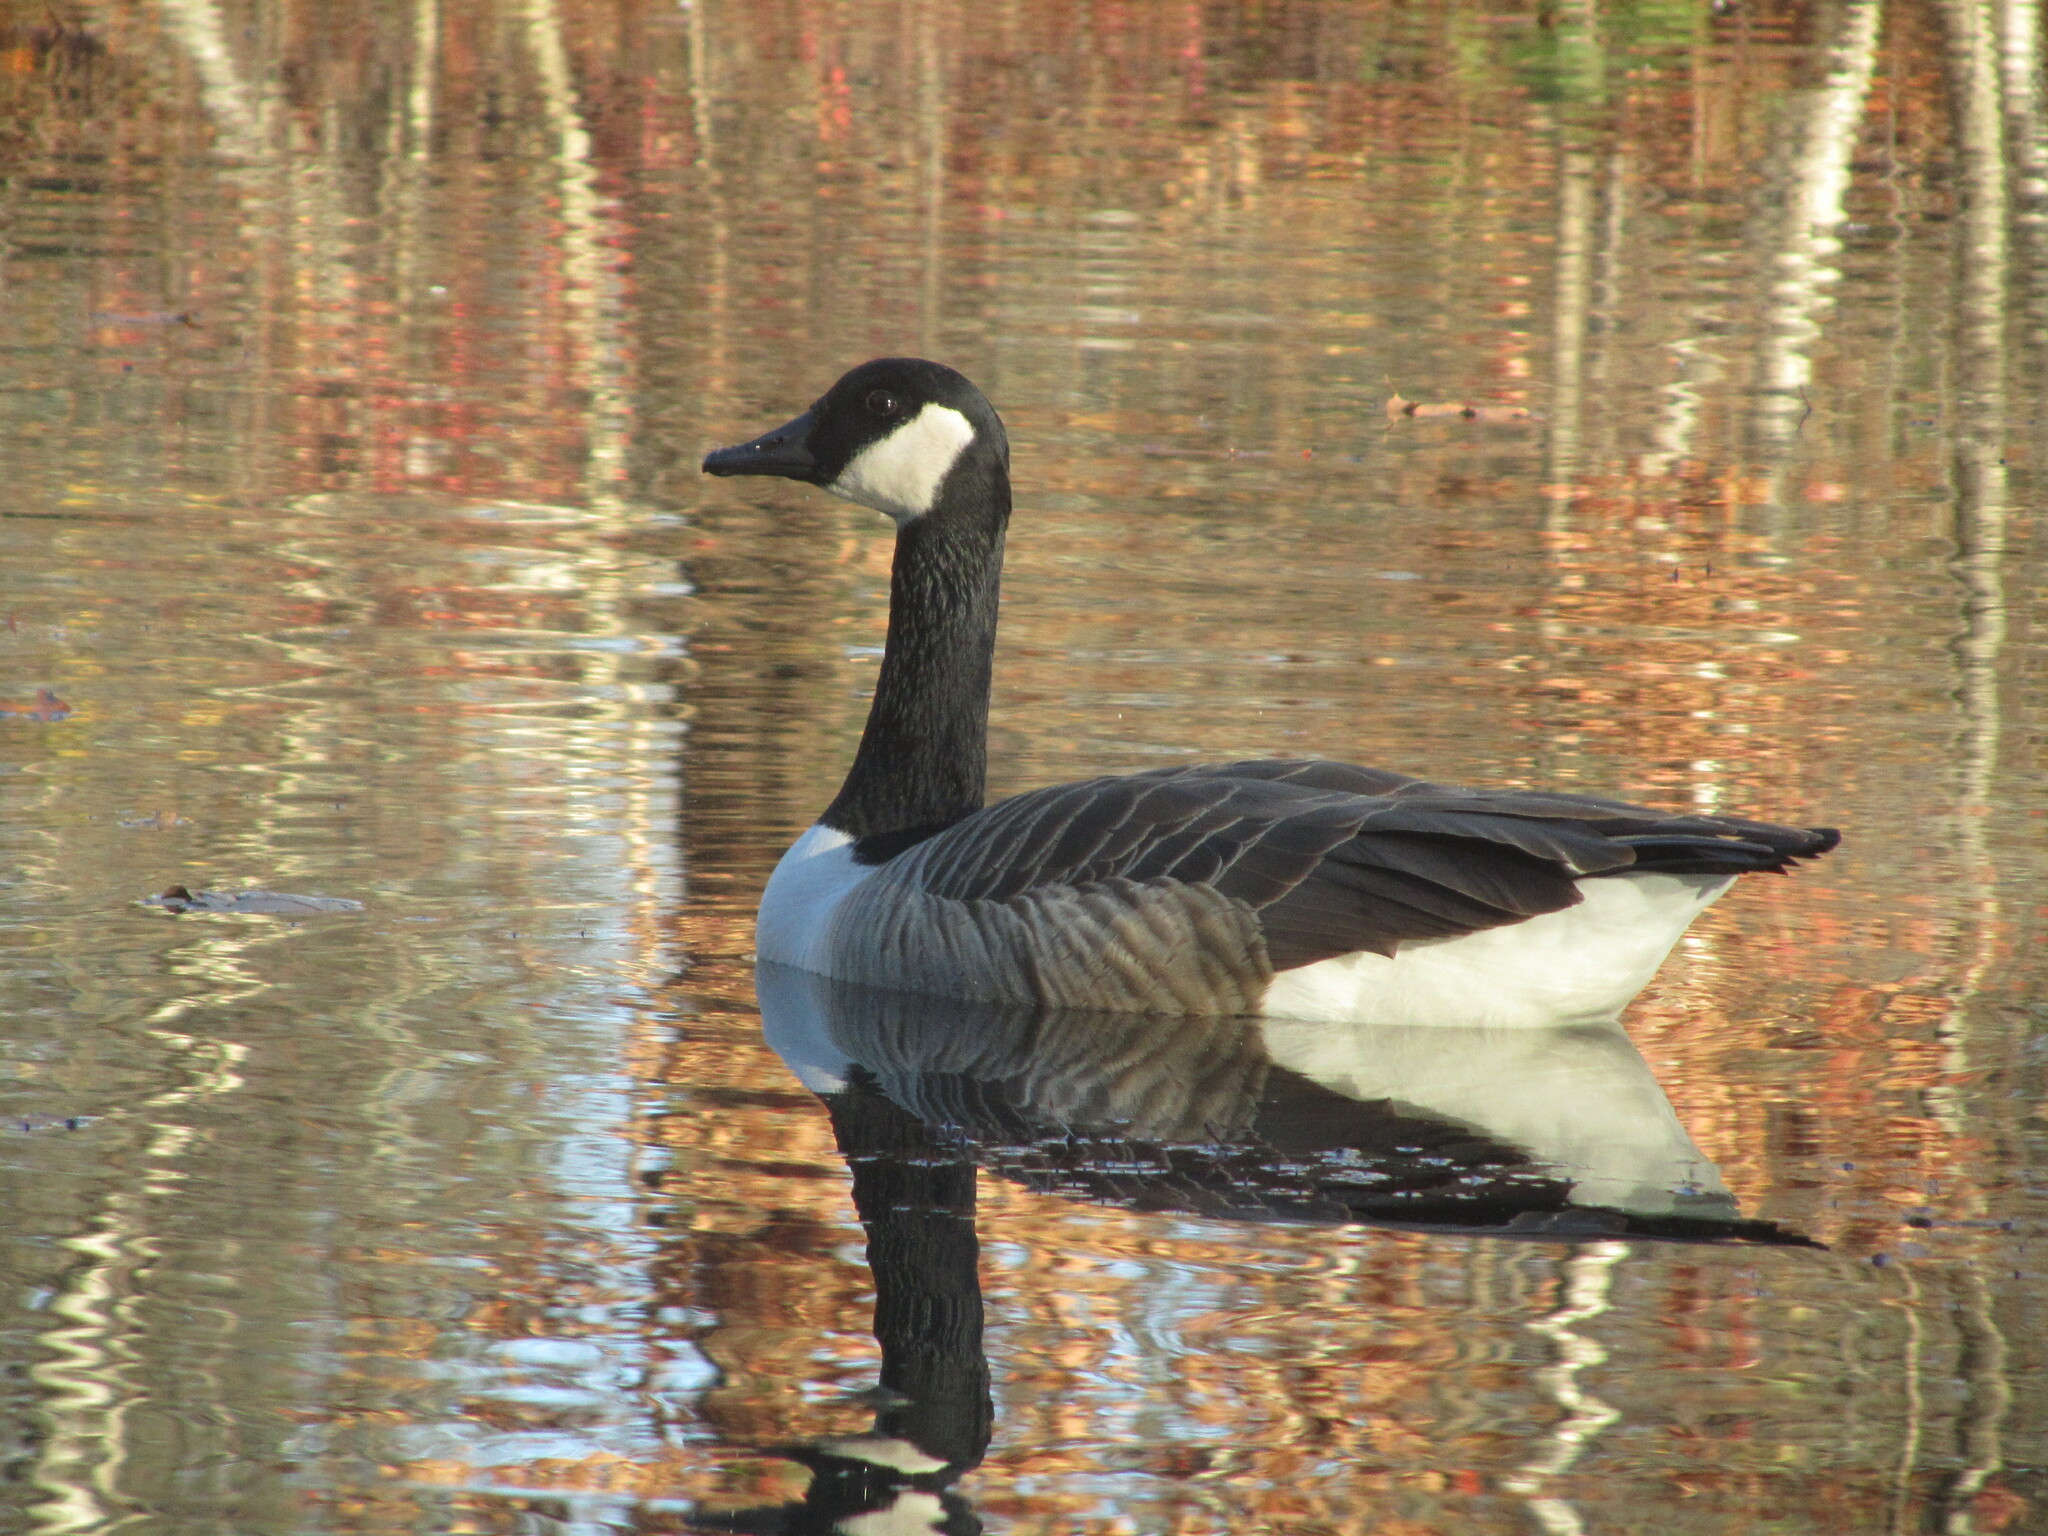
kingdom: Animalia
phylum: Chordata
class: Aves
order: Anseriformes
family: Anatidae
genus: Branta
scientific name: Branta canadensis
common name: Canada goose
